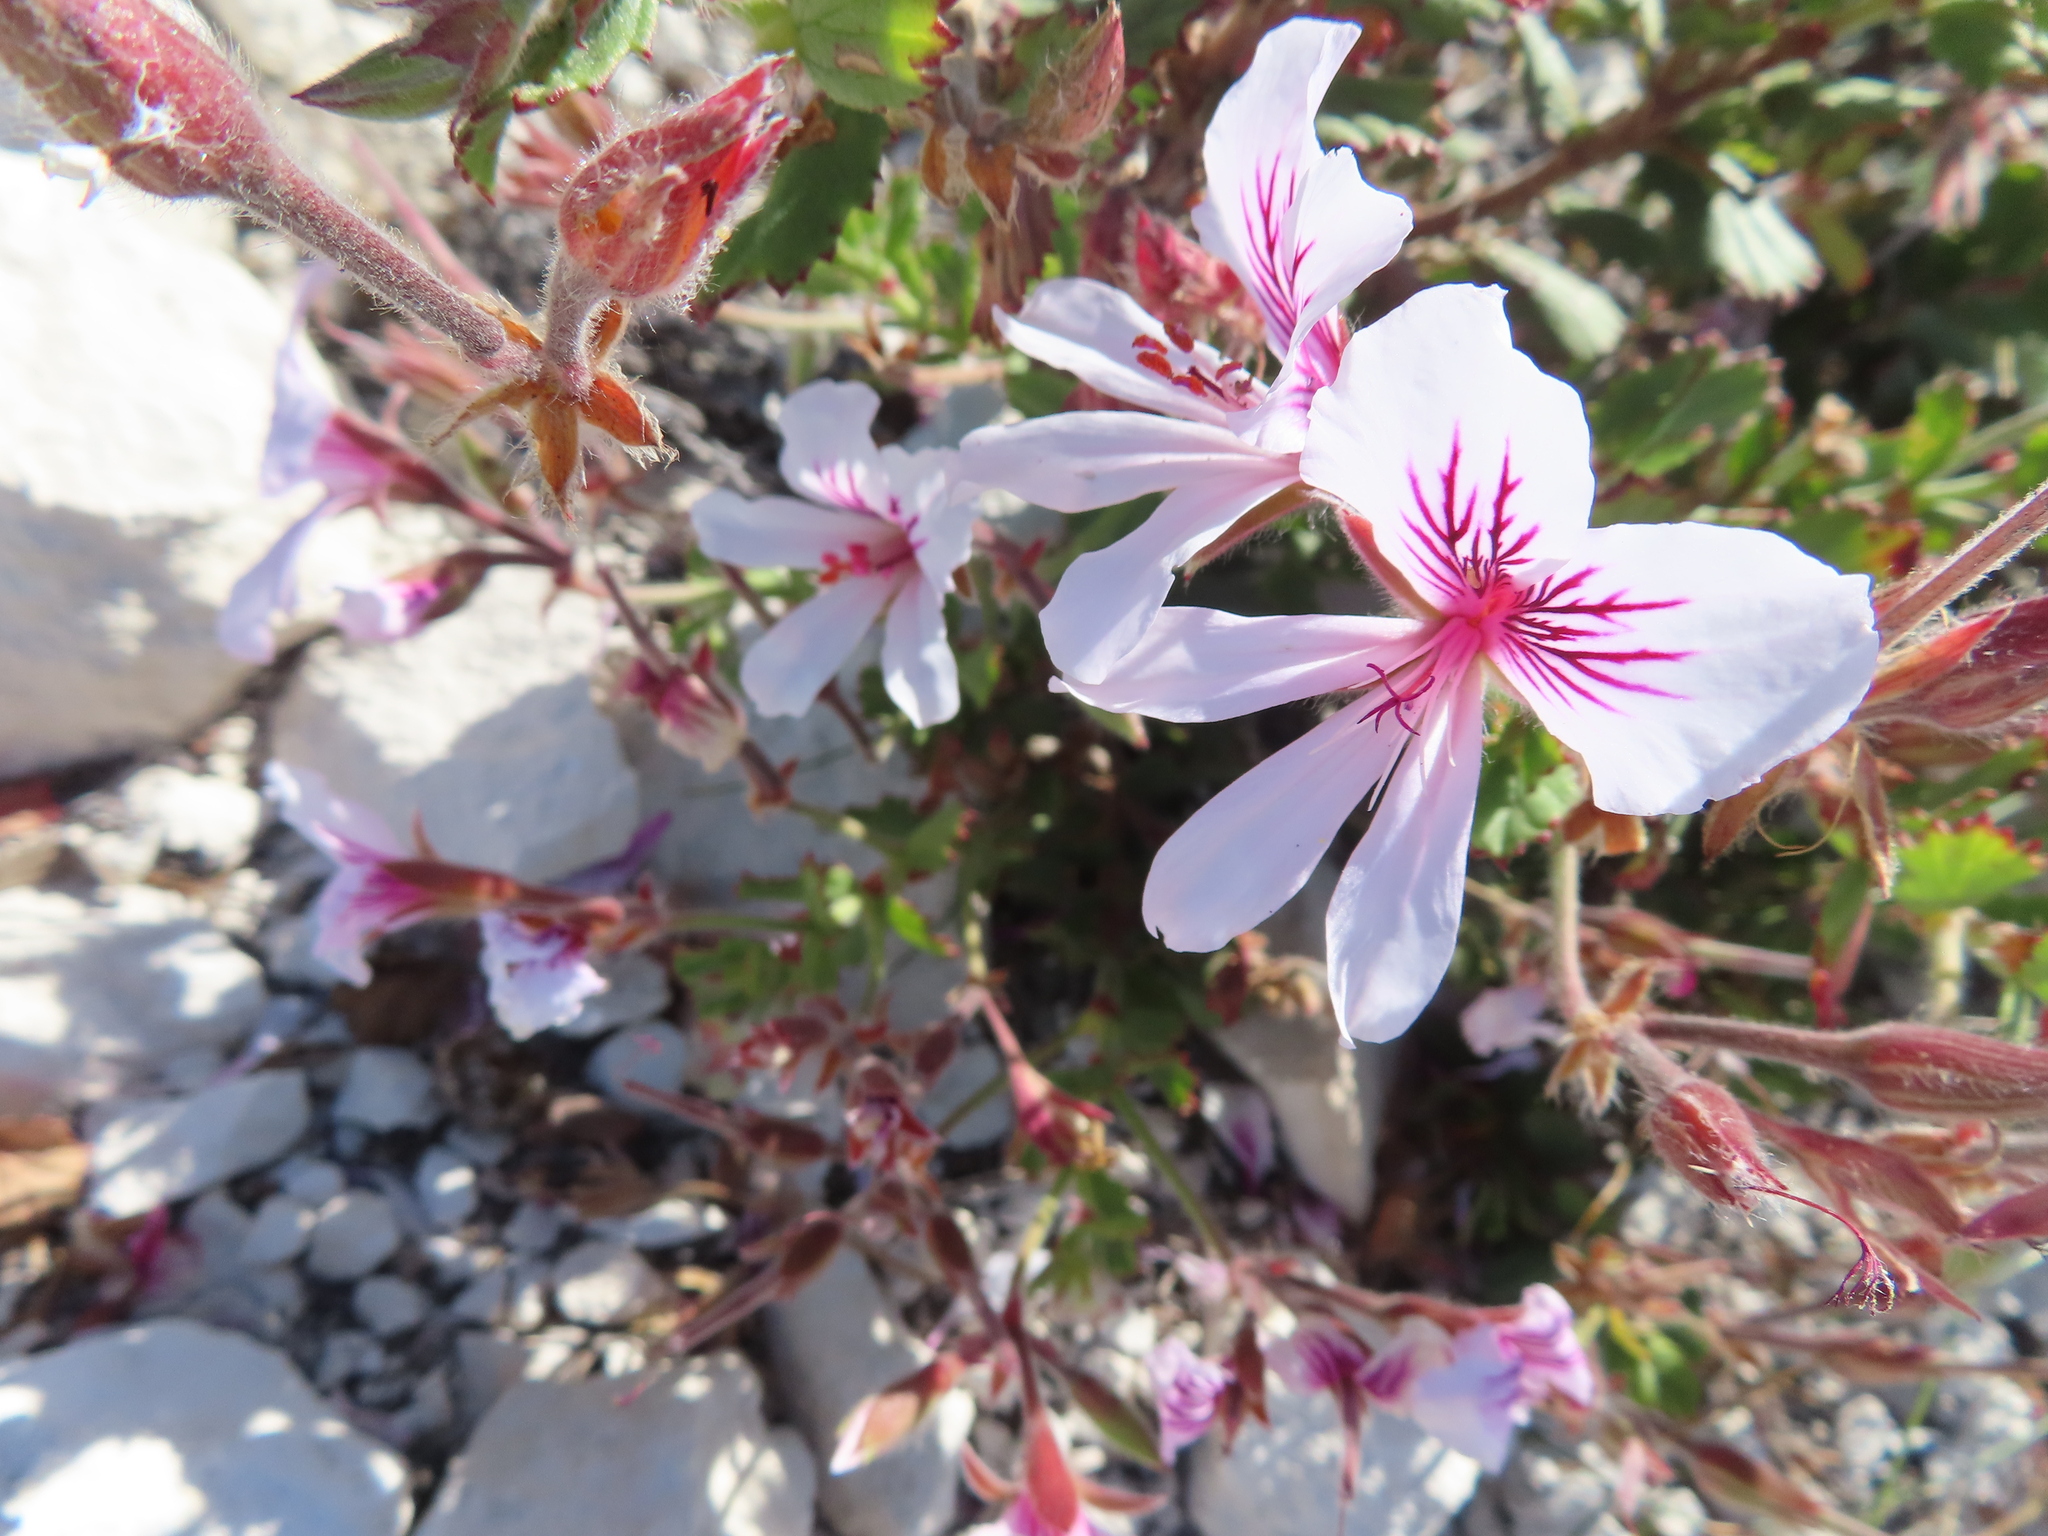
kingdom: Plantae
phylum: Tracheophyta
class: Magnoliopsida
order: Geraniales
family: Geraniaceae
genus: Pelargonium
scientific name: Pelargonium betulinum
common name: Birch-leaf pelargonium
